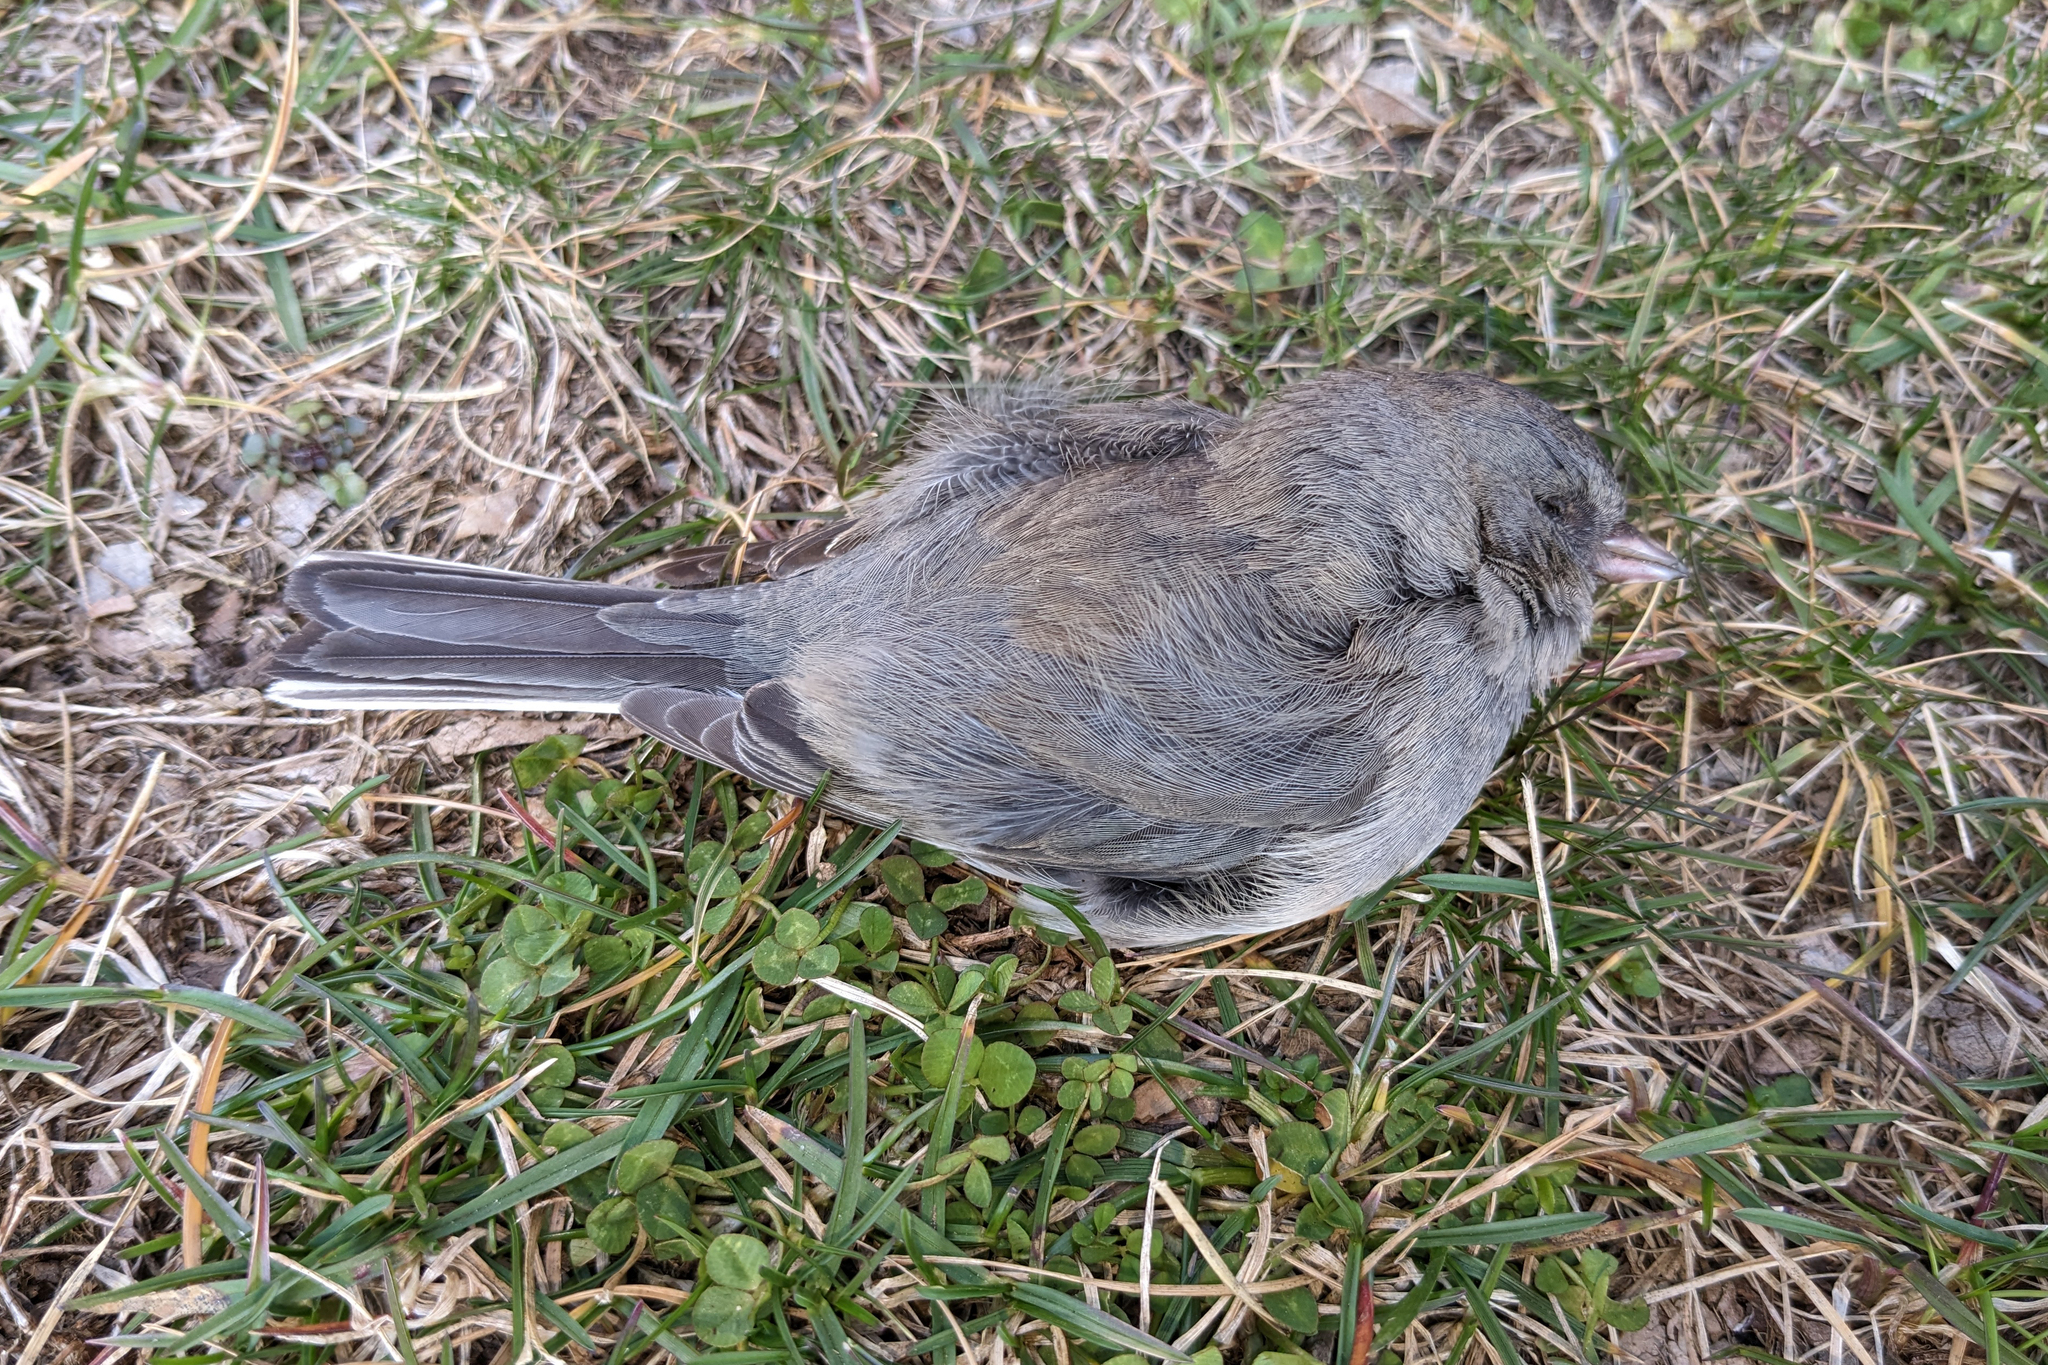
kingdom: Animalia
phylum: Chordata
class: Aves
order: Passeriformes
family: Passerellidae
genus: Junco
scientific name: Junco hyemalis
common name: Dark-eyed junco
